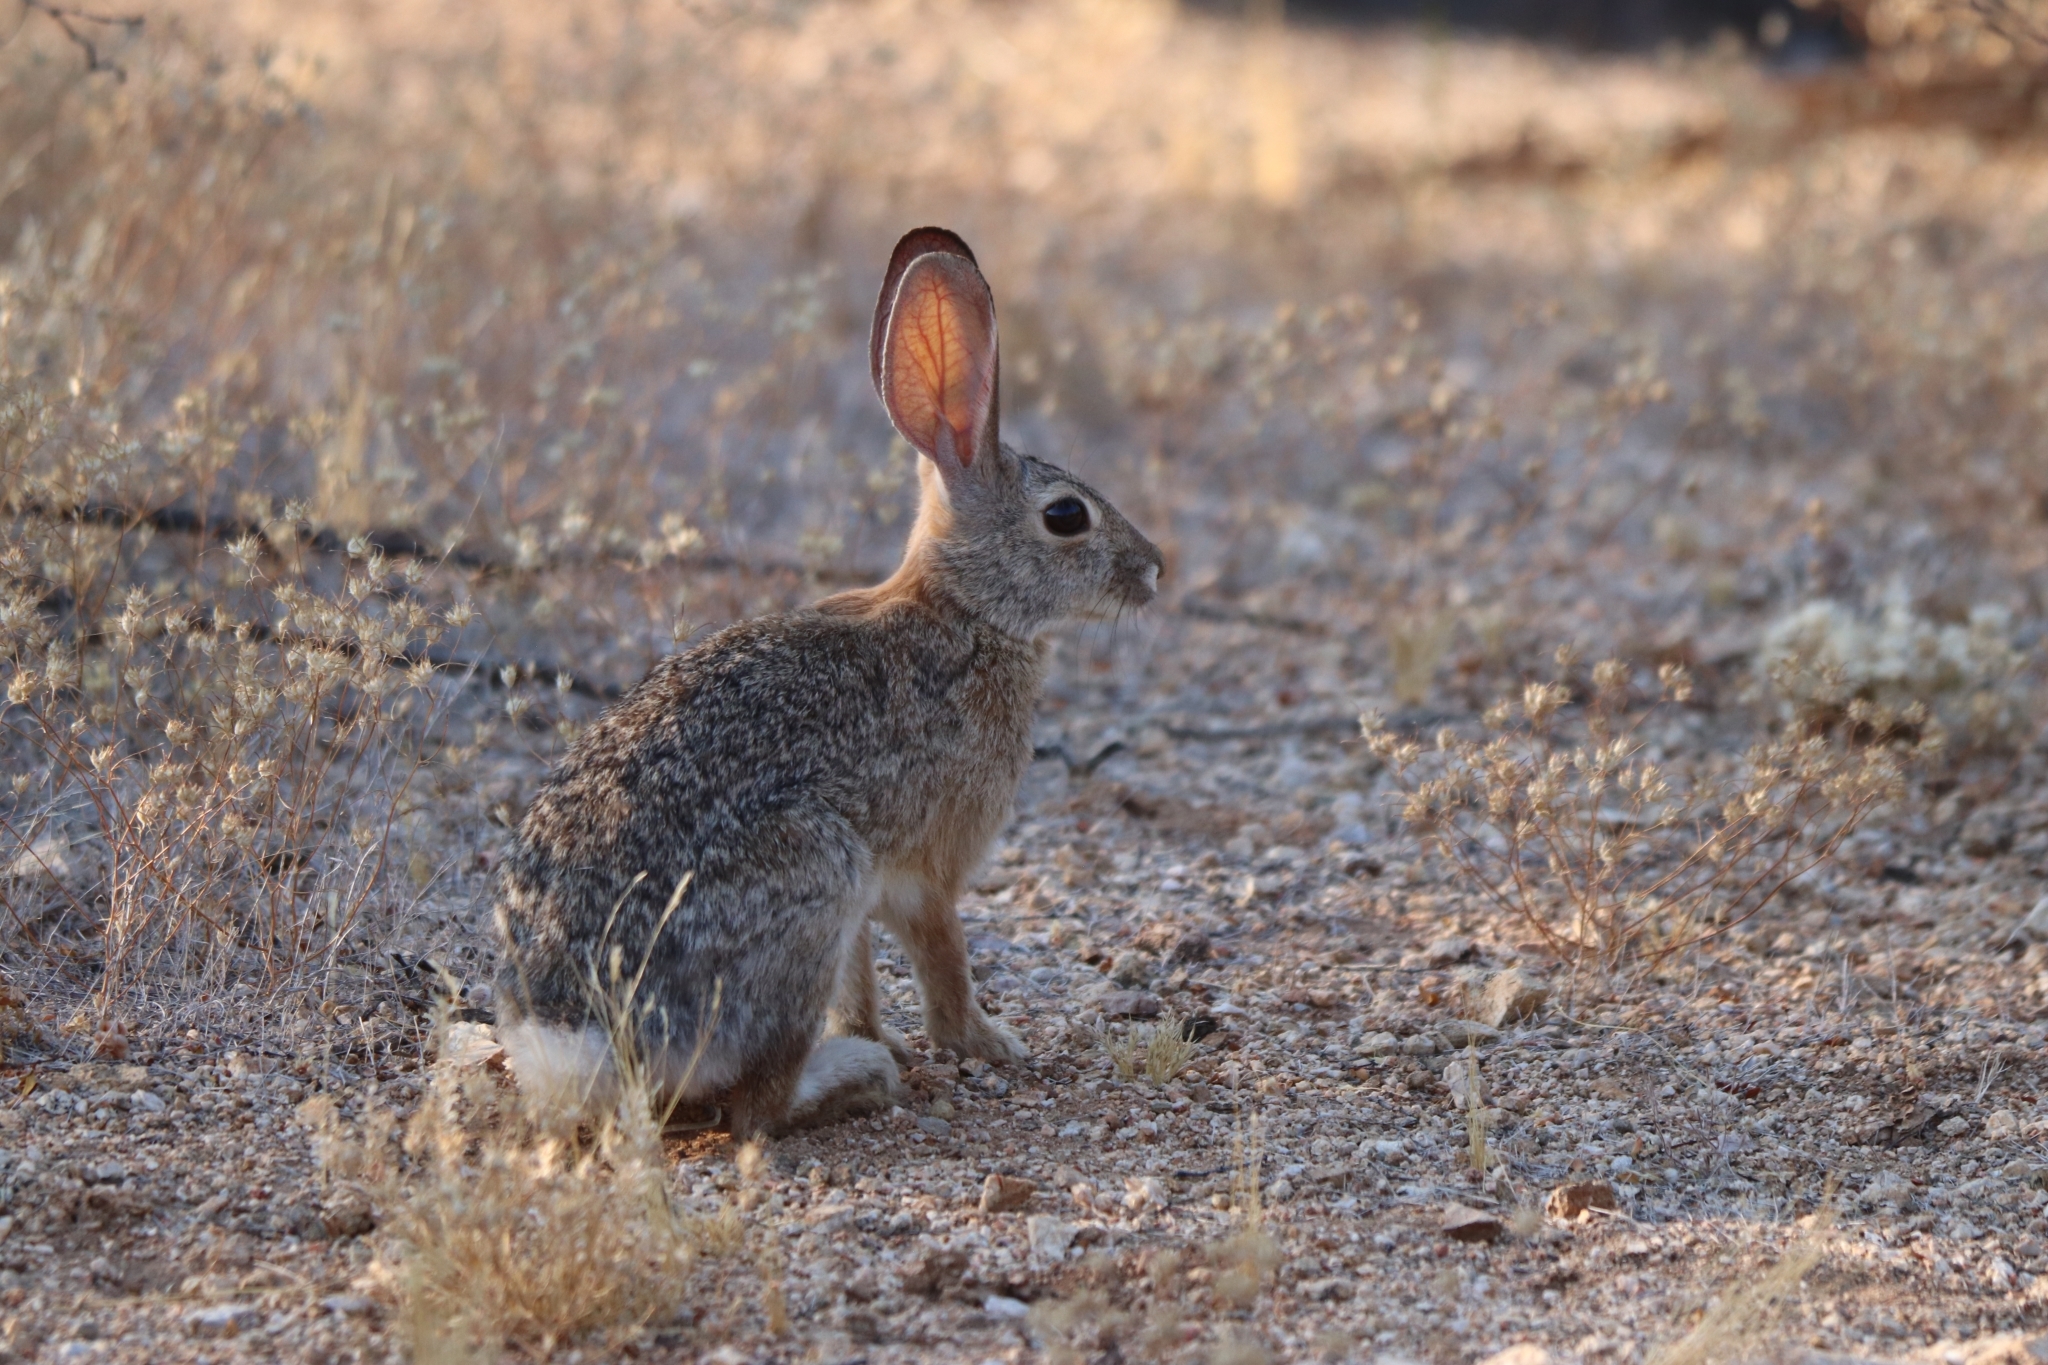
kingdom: Animalia
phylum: Chordata
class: Mammalia
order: Lagomorpha
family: Leporidae
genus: Sylvilagus
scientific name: Sylvilagus audubonii
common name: Desert cottontail
